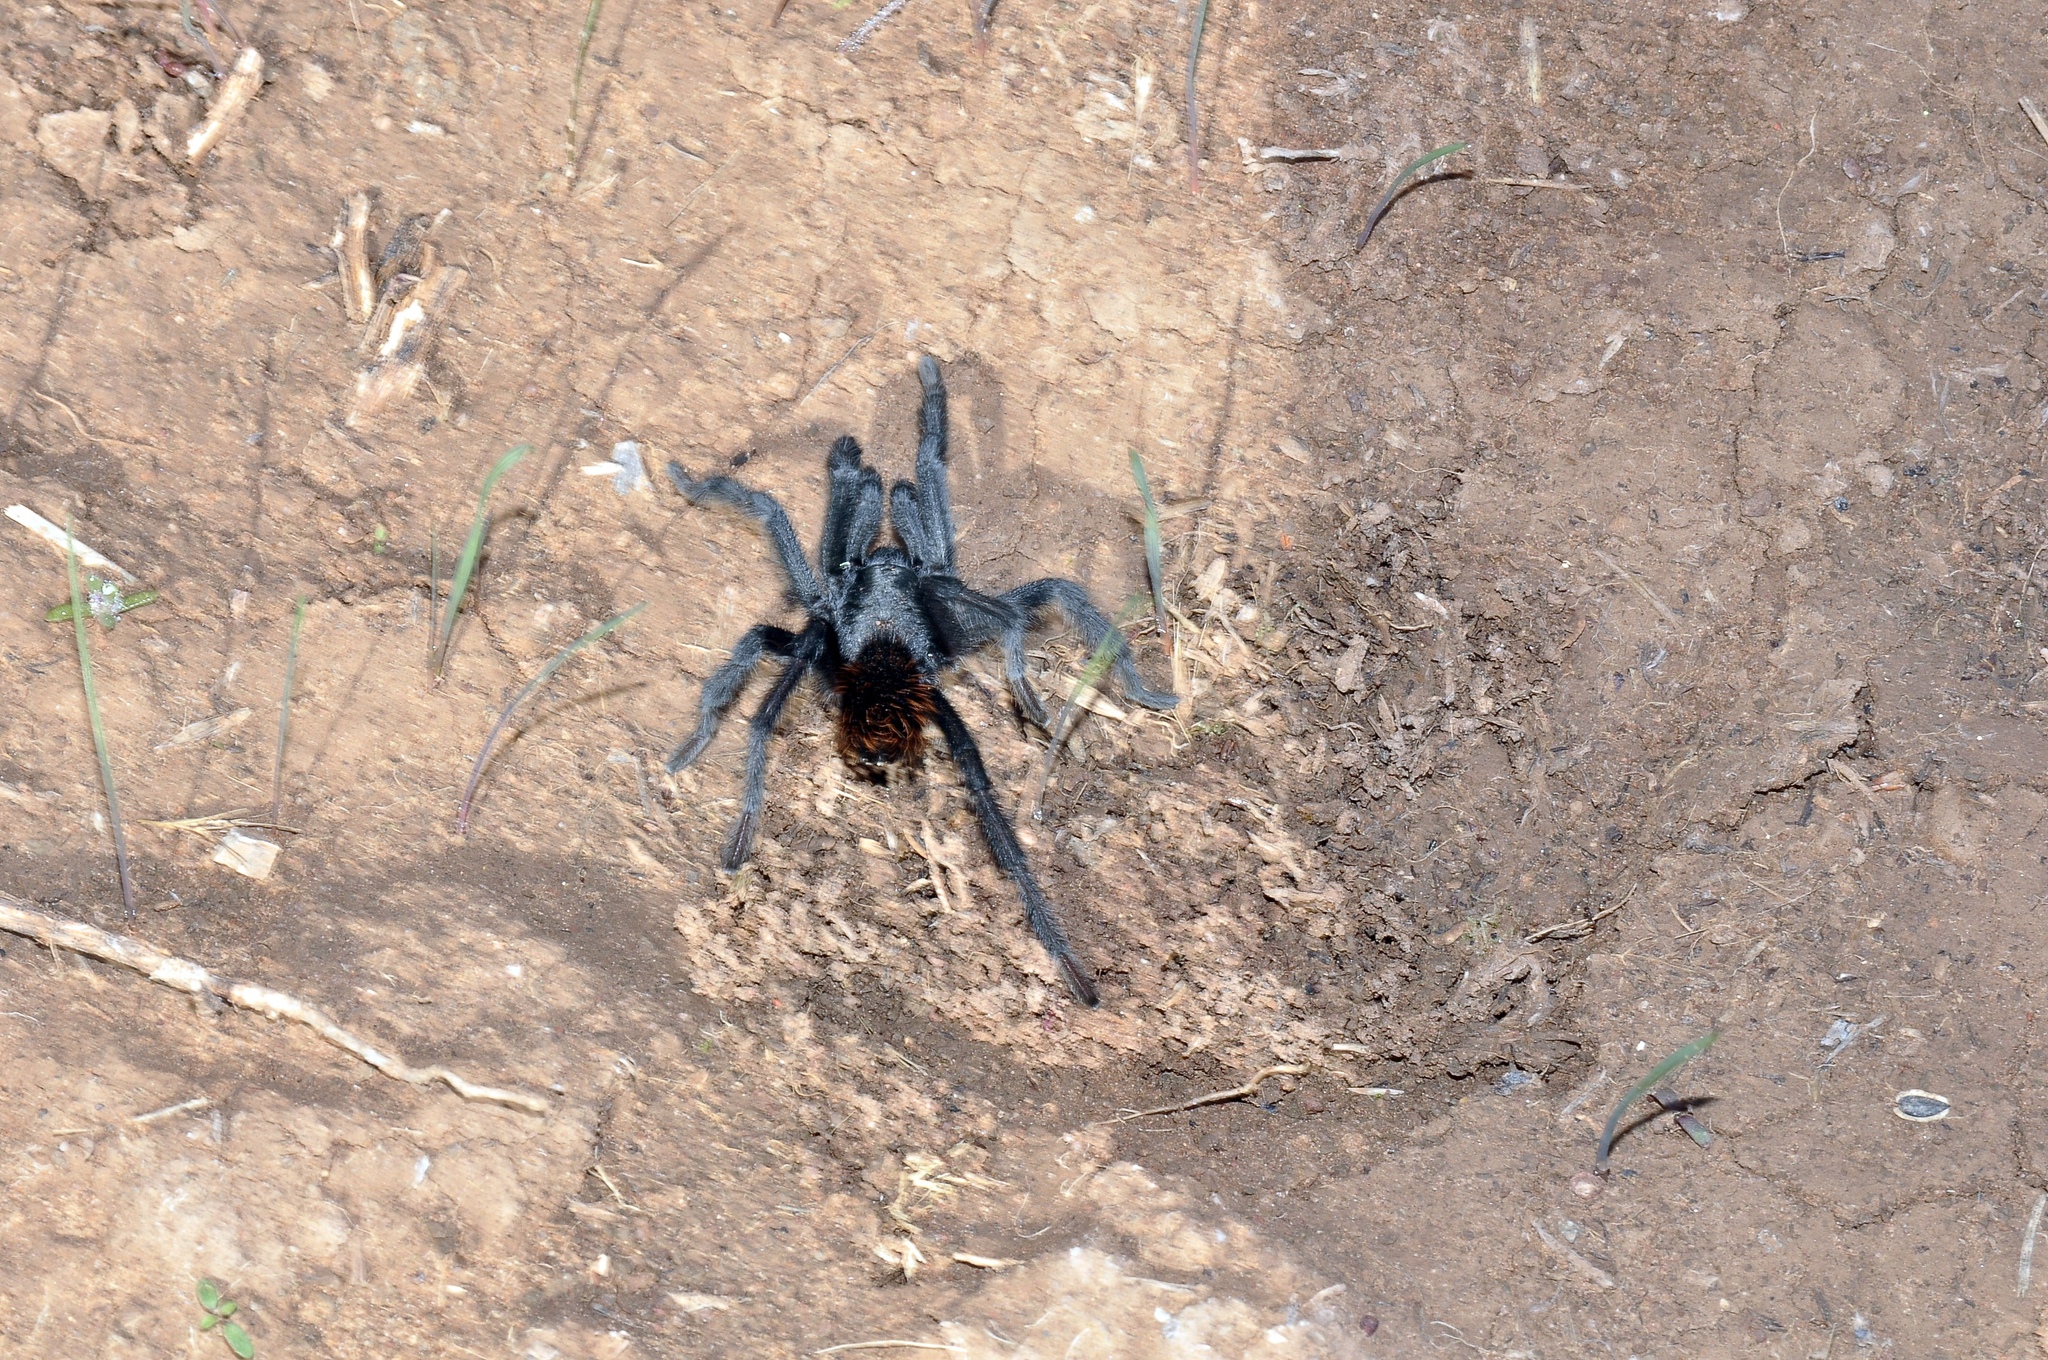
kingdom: Animalia
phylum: Arthropoda
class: Arachnida
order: Araneae
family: Theraphosidae
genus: Aphonopelma
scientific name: Aphonopelma marxi
